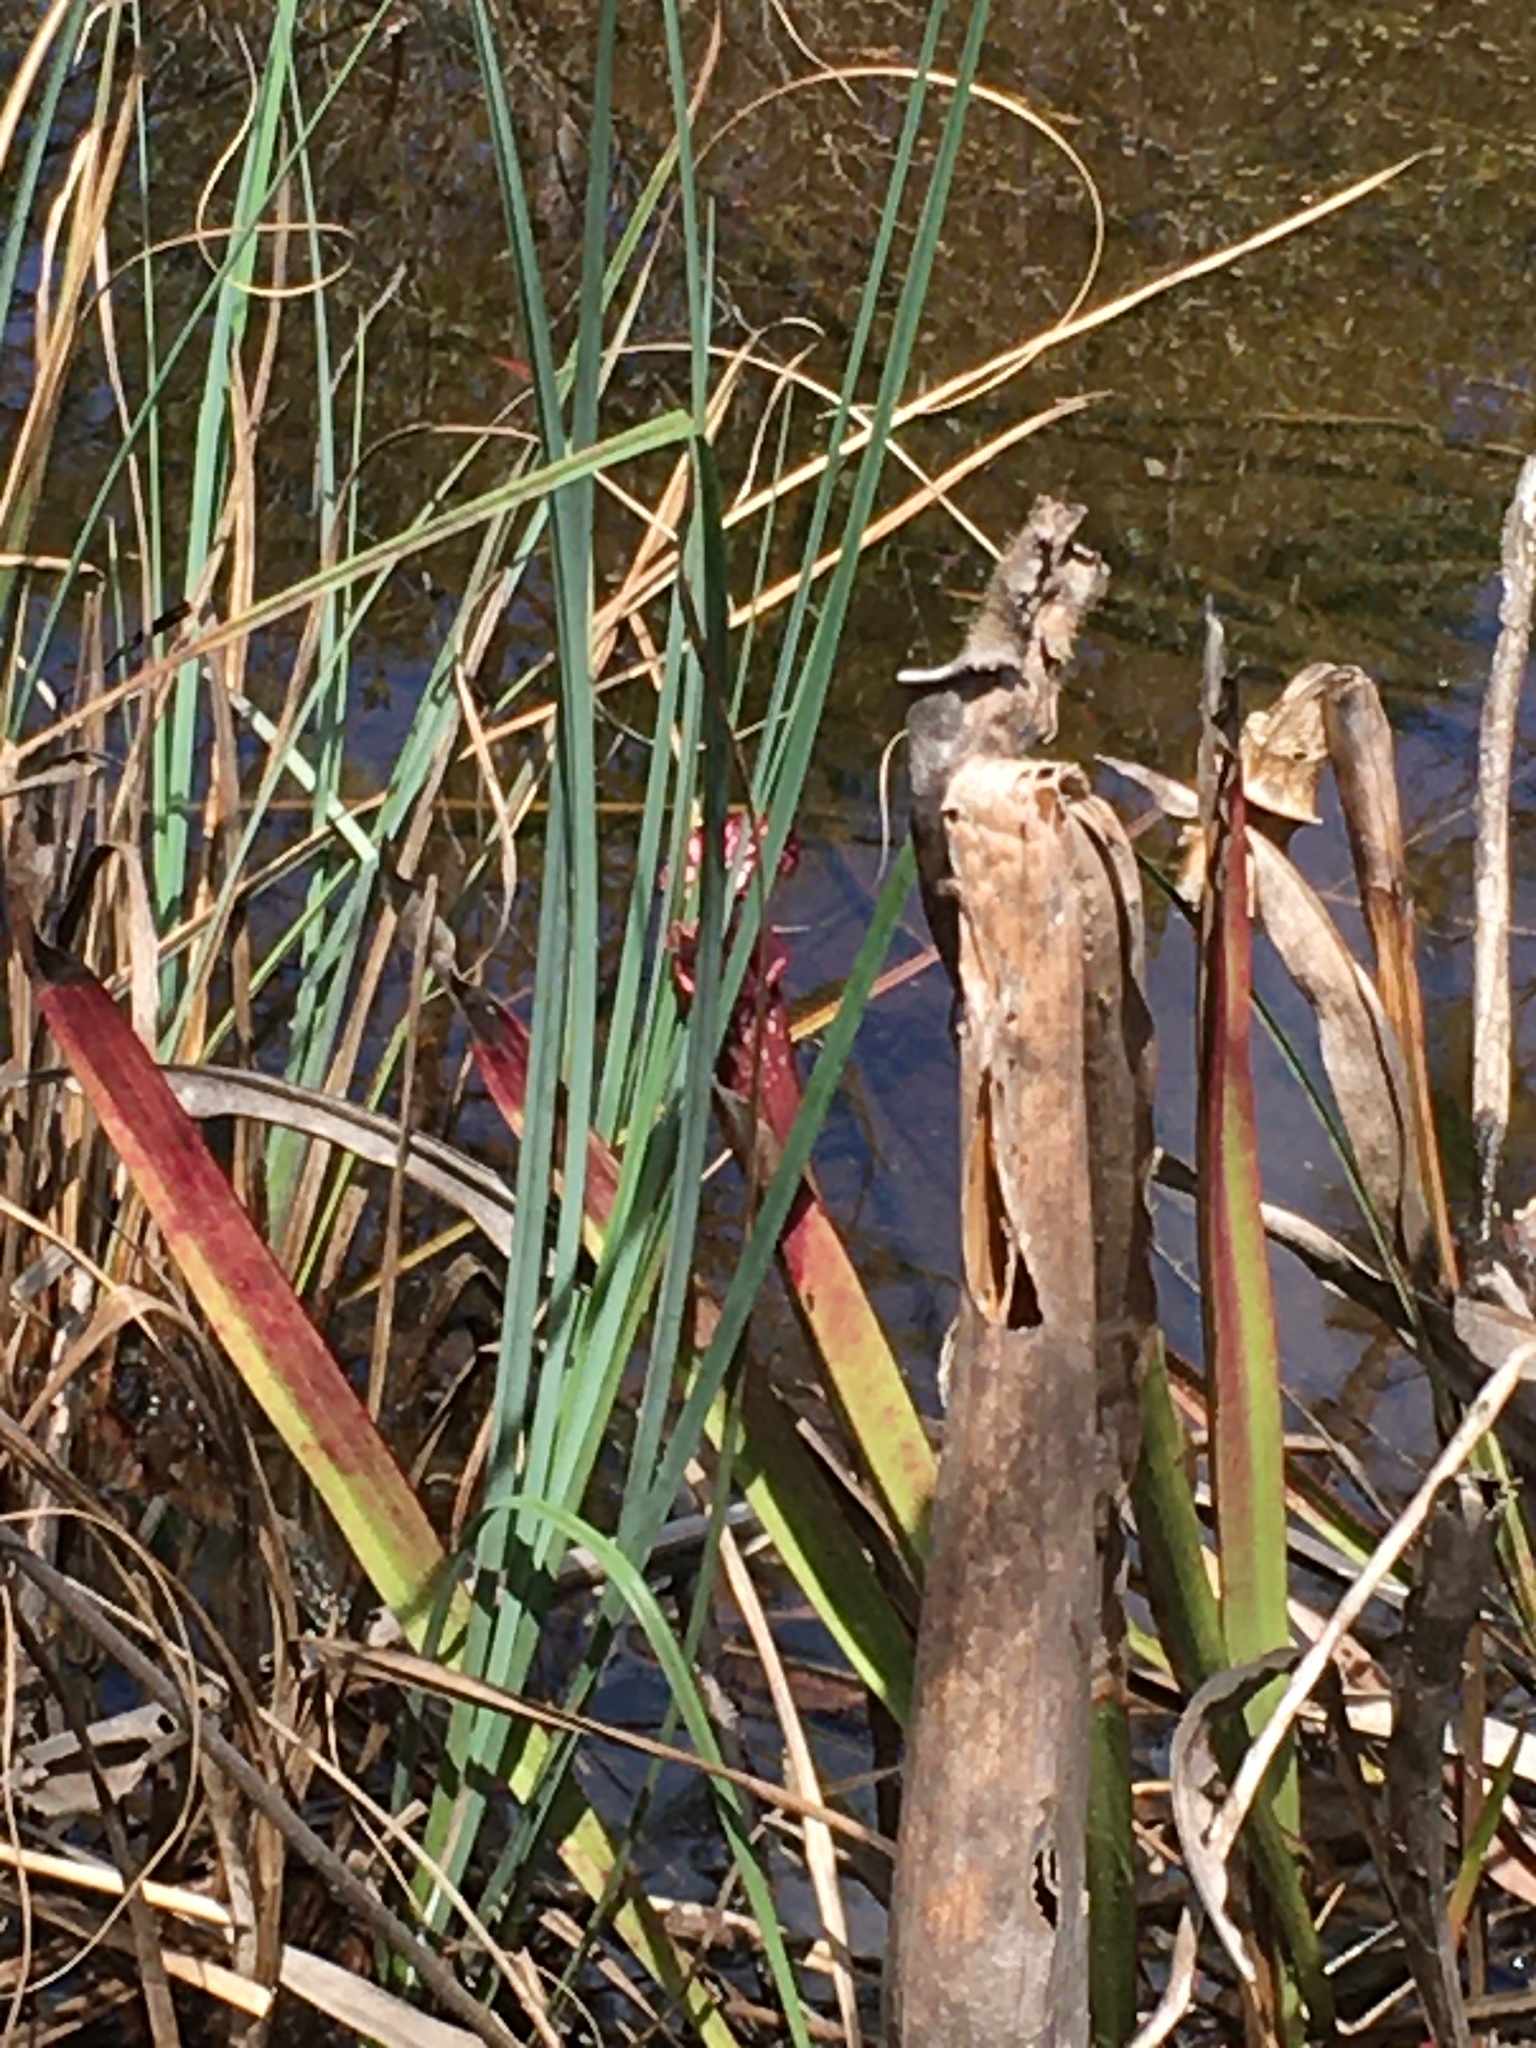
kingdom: Plantae
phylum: Tracheophyta
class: Magnoliopsida
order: Ericales
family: Sarraceniaceae
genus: Sarracenia
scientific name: Sarracenia leucophylla
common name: Purple trumpetleaf
